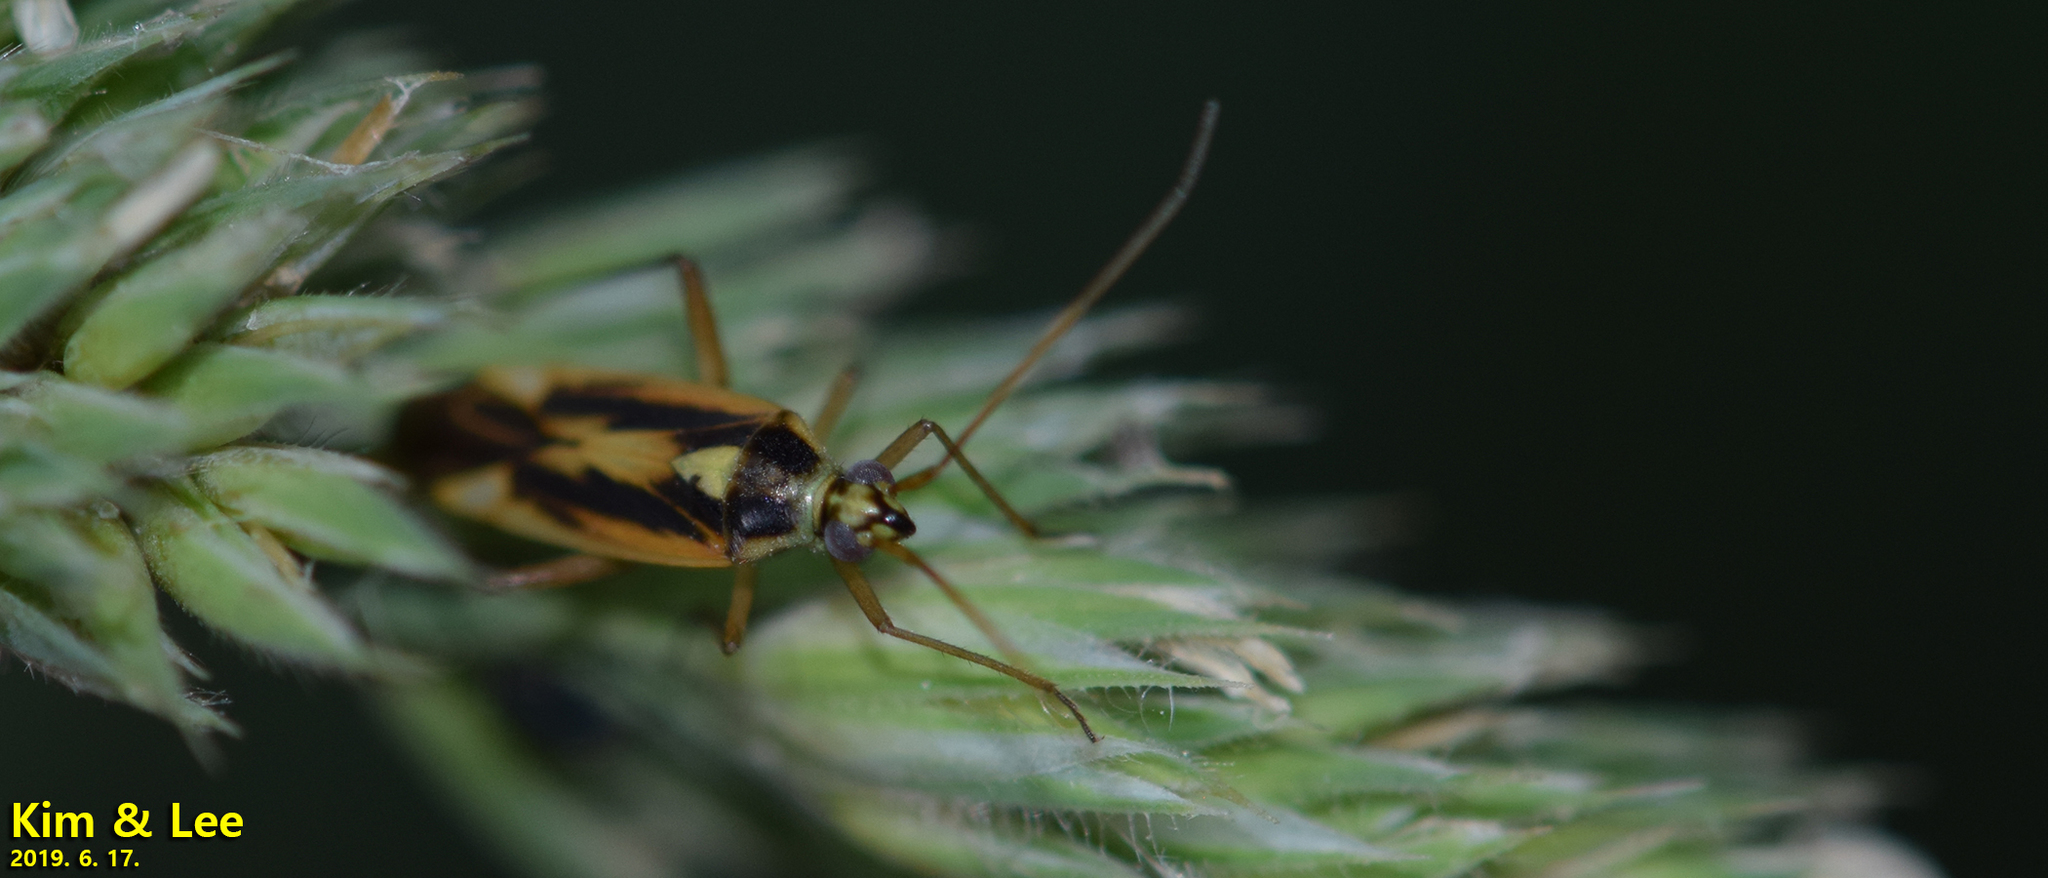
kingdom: Animalia
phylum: Arthropoda
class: Insecta
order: Hemiptera
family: Miridae
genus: Stenotus
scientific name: Stenotus binotatus
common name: Plant bug
